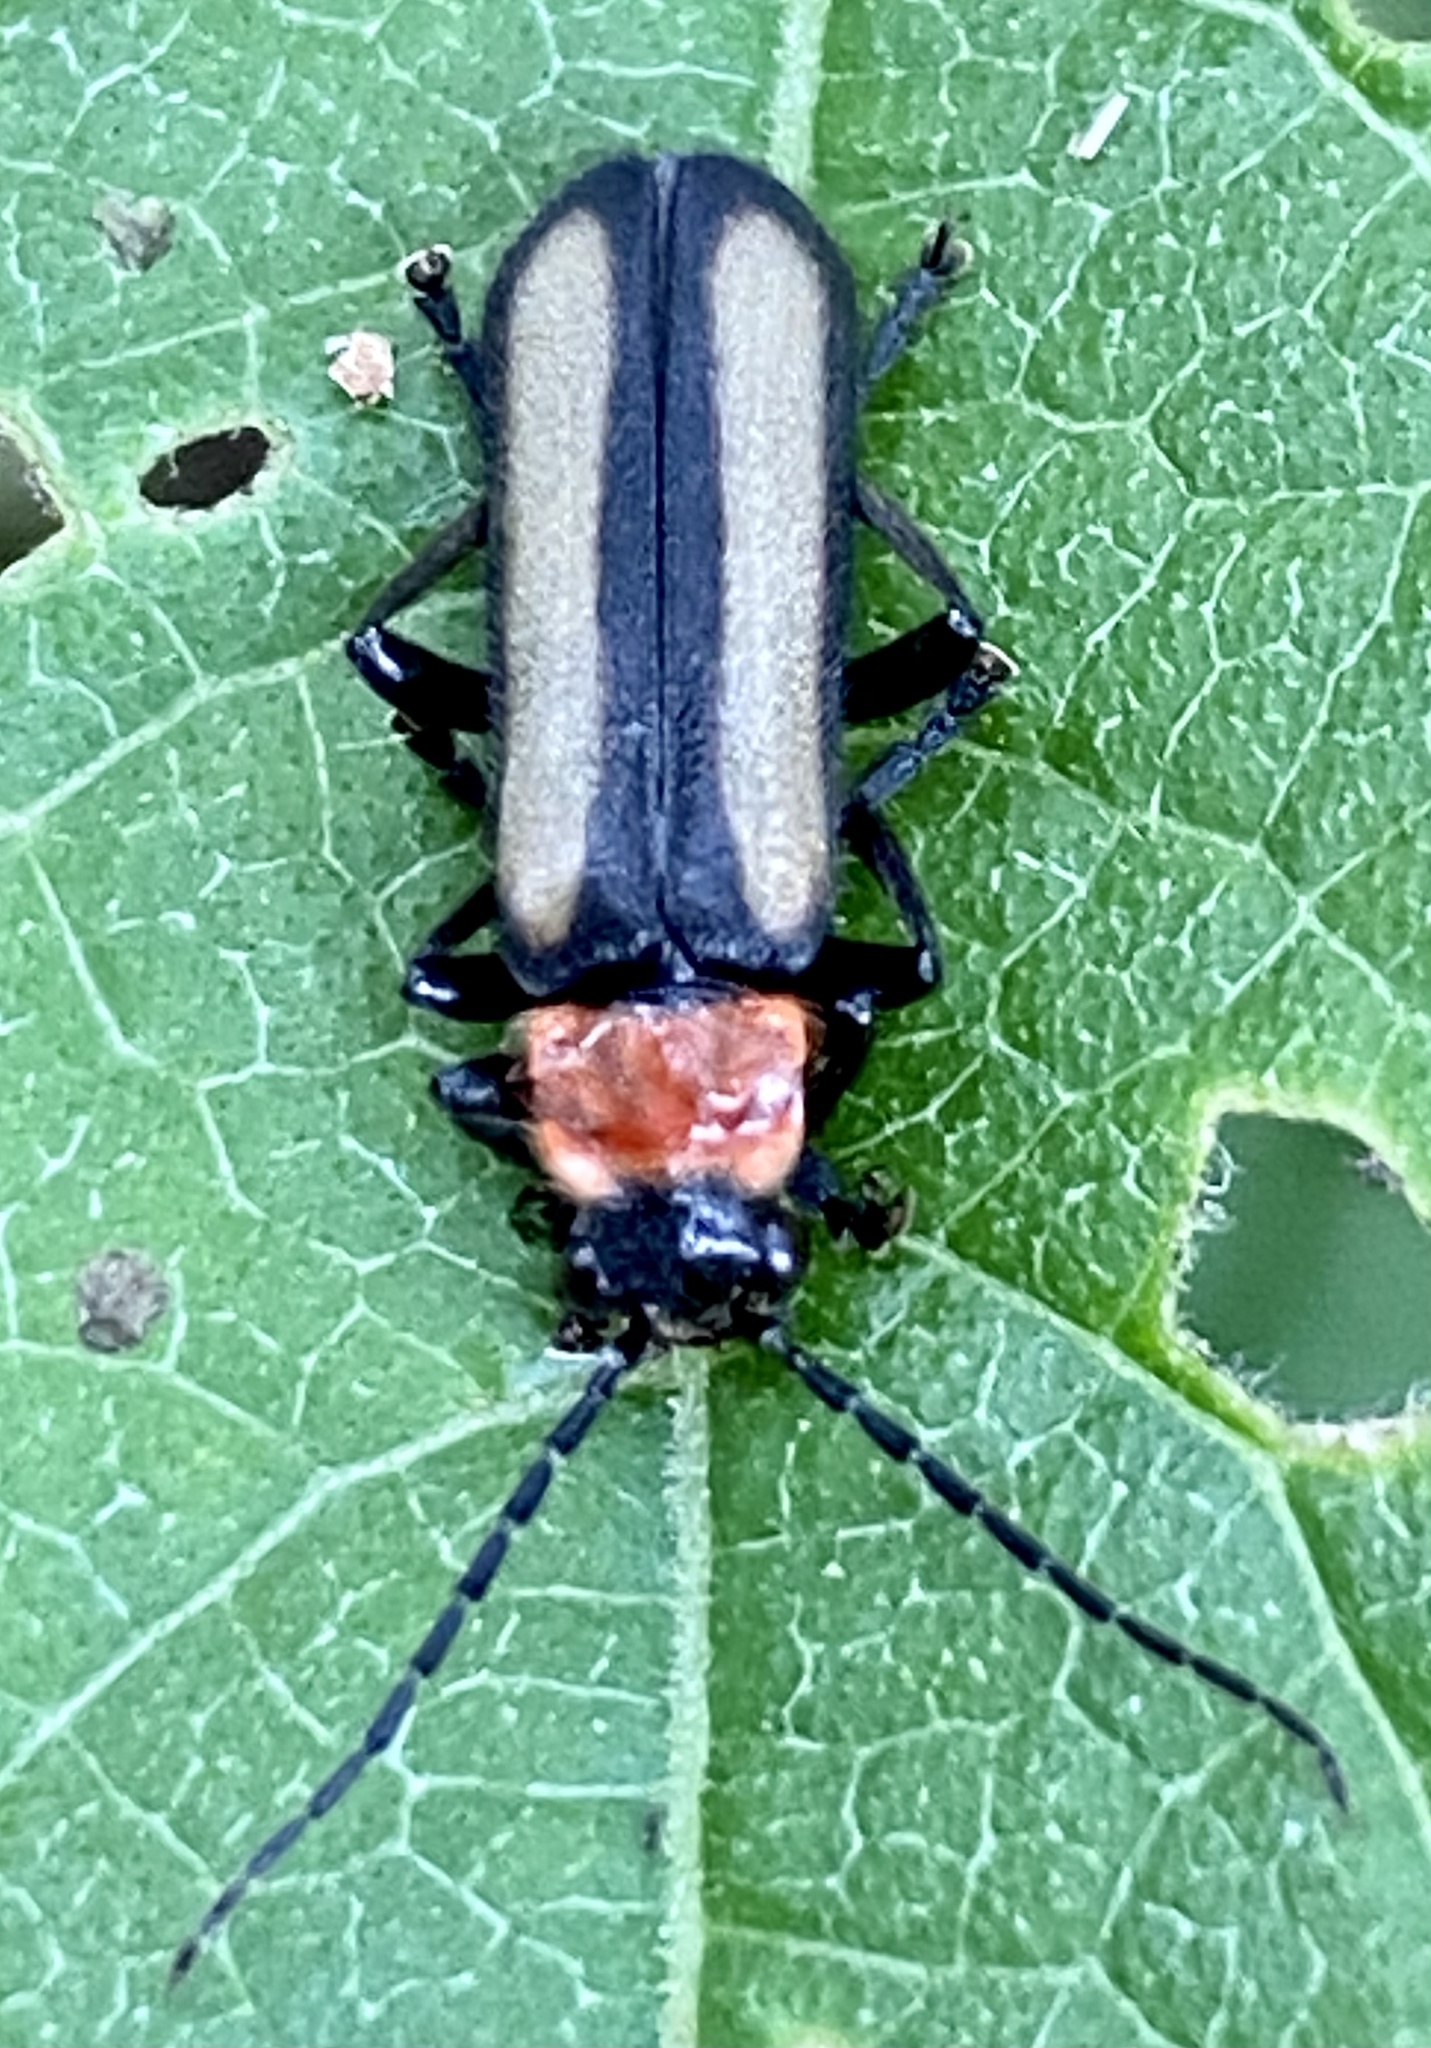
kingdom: Animalia
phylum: Arthropoda
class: Insecta
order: Coleoptera
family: Cantharidae
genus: Discodon
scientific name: Discodon
